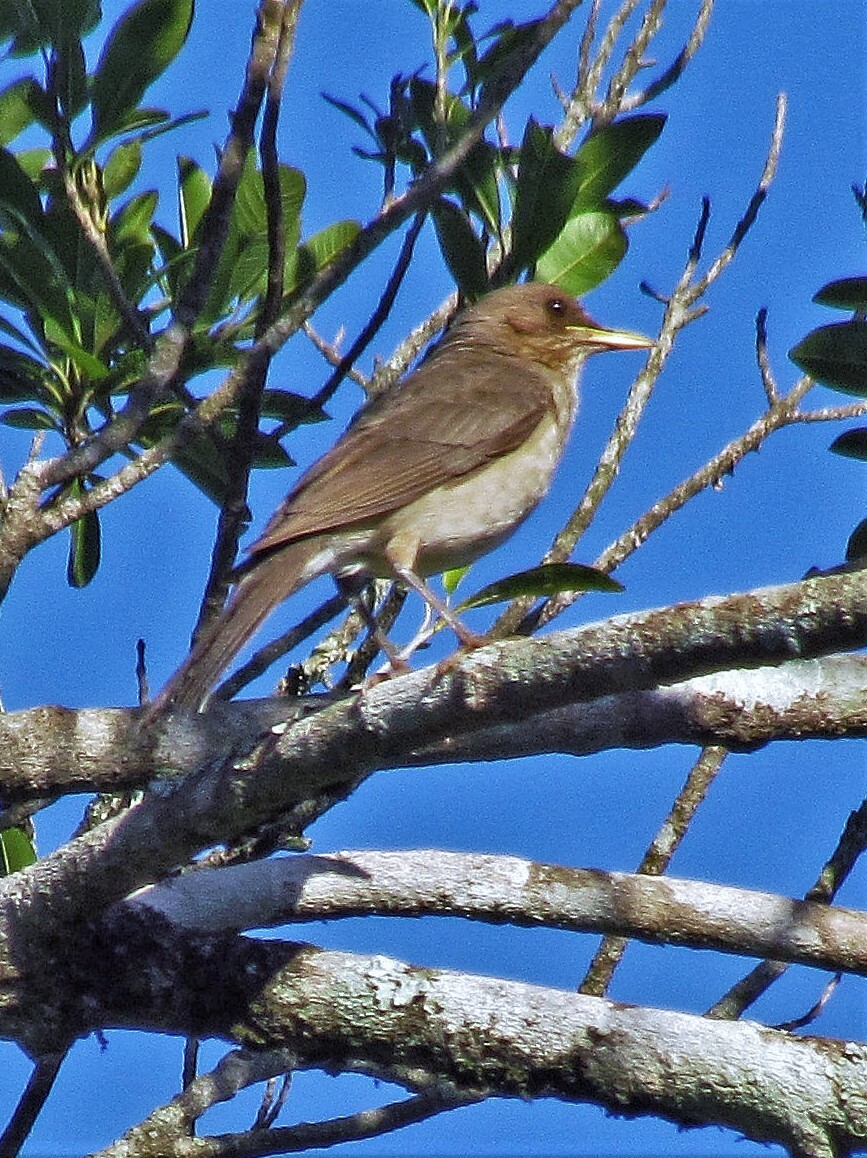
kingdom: Animalia
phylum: Chordata
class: Aves
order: Passeriformes
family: Turdidae
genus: Turdus
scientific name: Turdus amaurochalinus
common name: Creamy-bellied thrush
